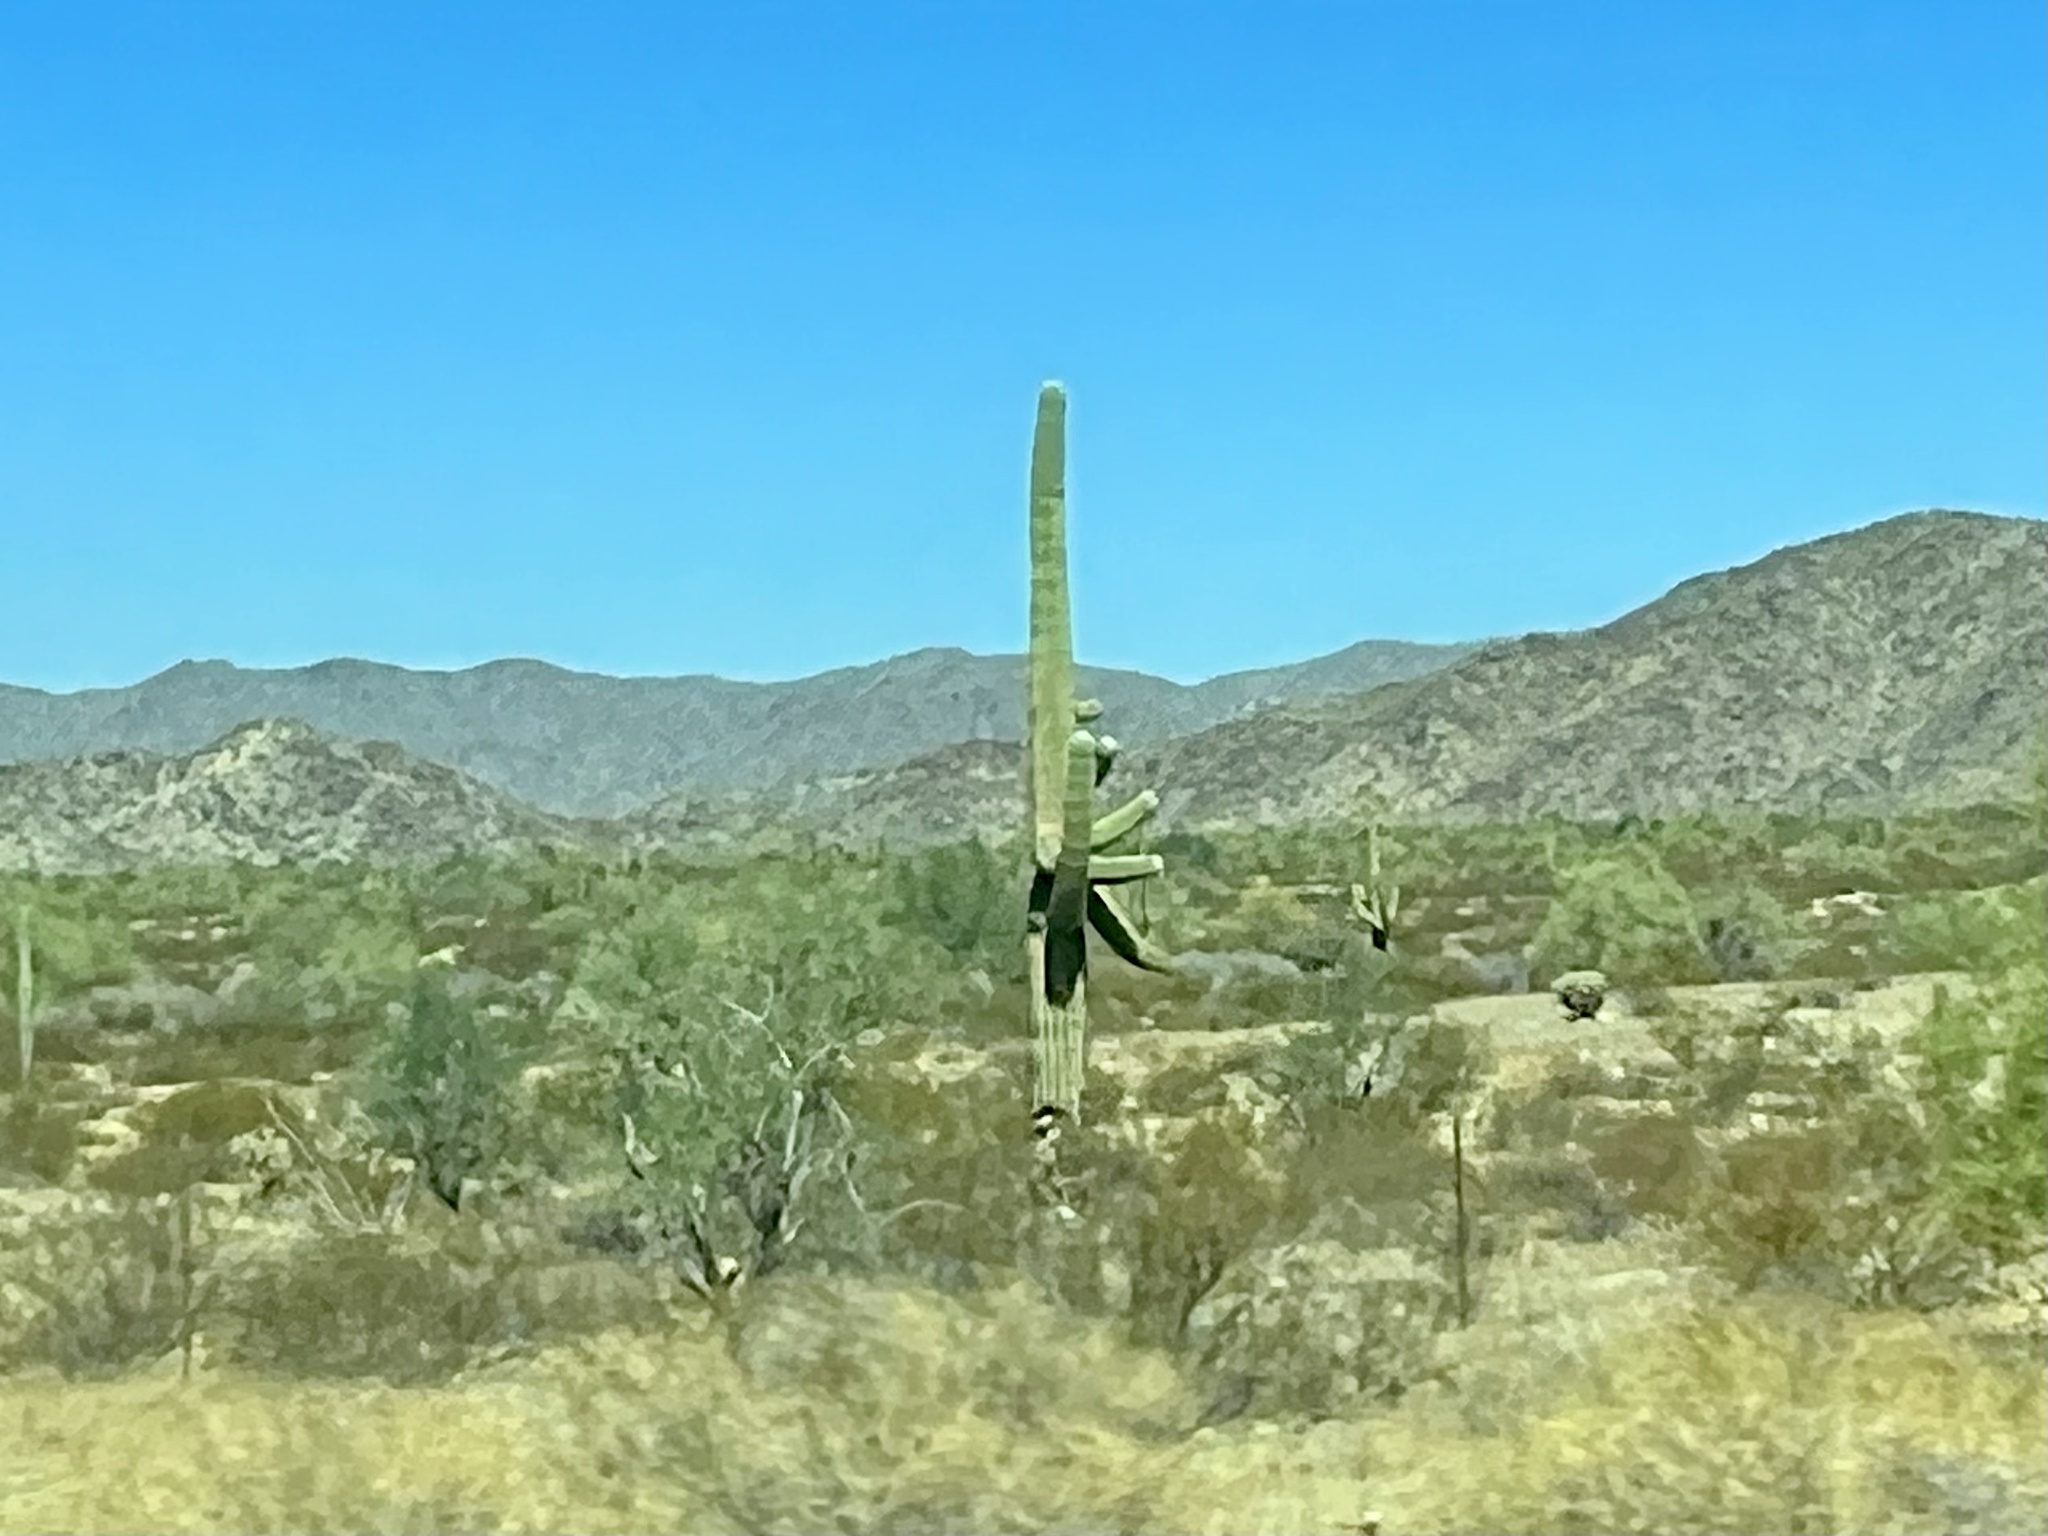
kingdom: Plantae
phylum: Tracheophyta
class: Magnoliopsida
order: Caryophyllales
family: Cactaceae
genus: Carnegiea
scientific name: Carnegiea gigantea
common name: Saguaro
